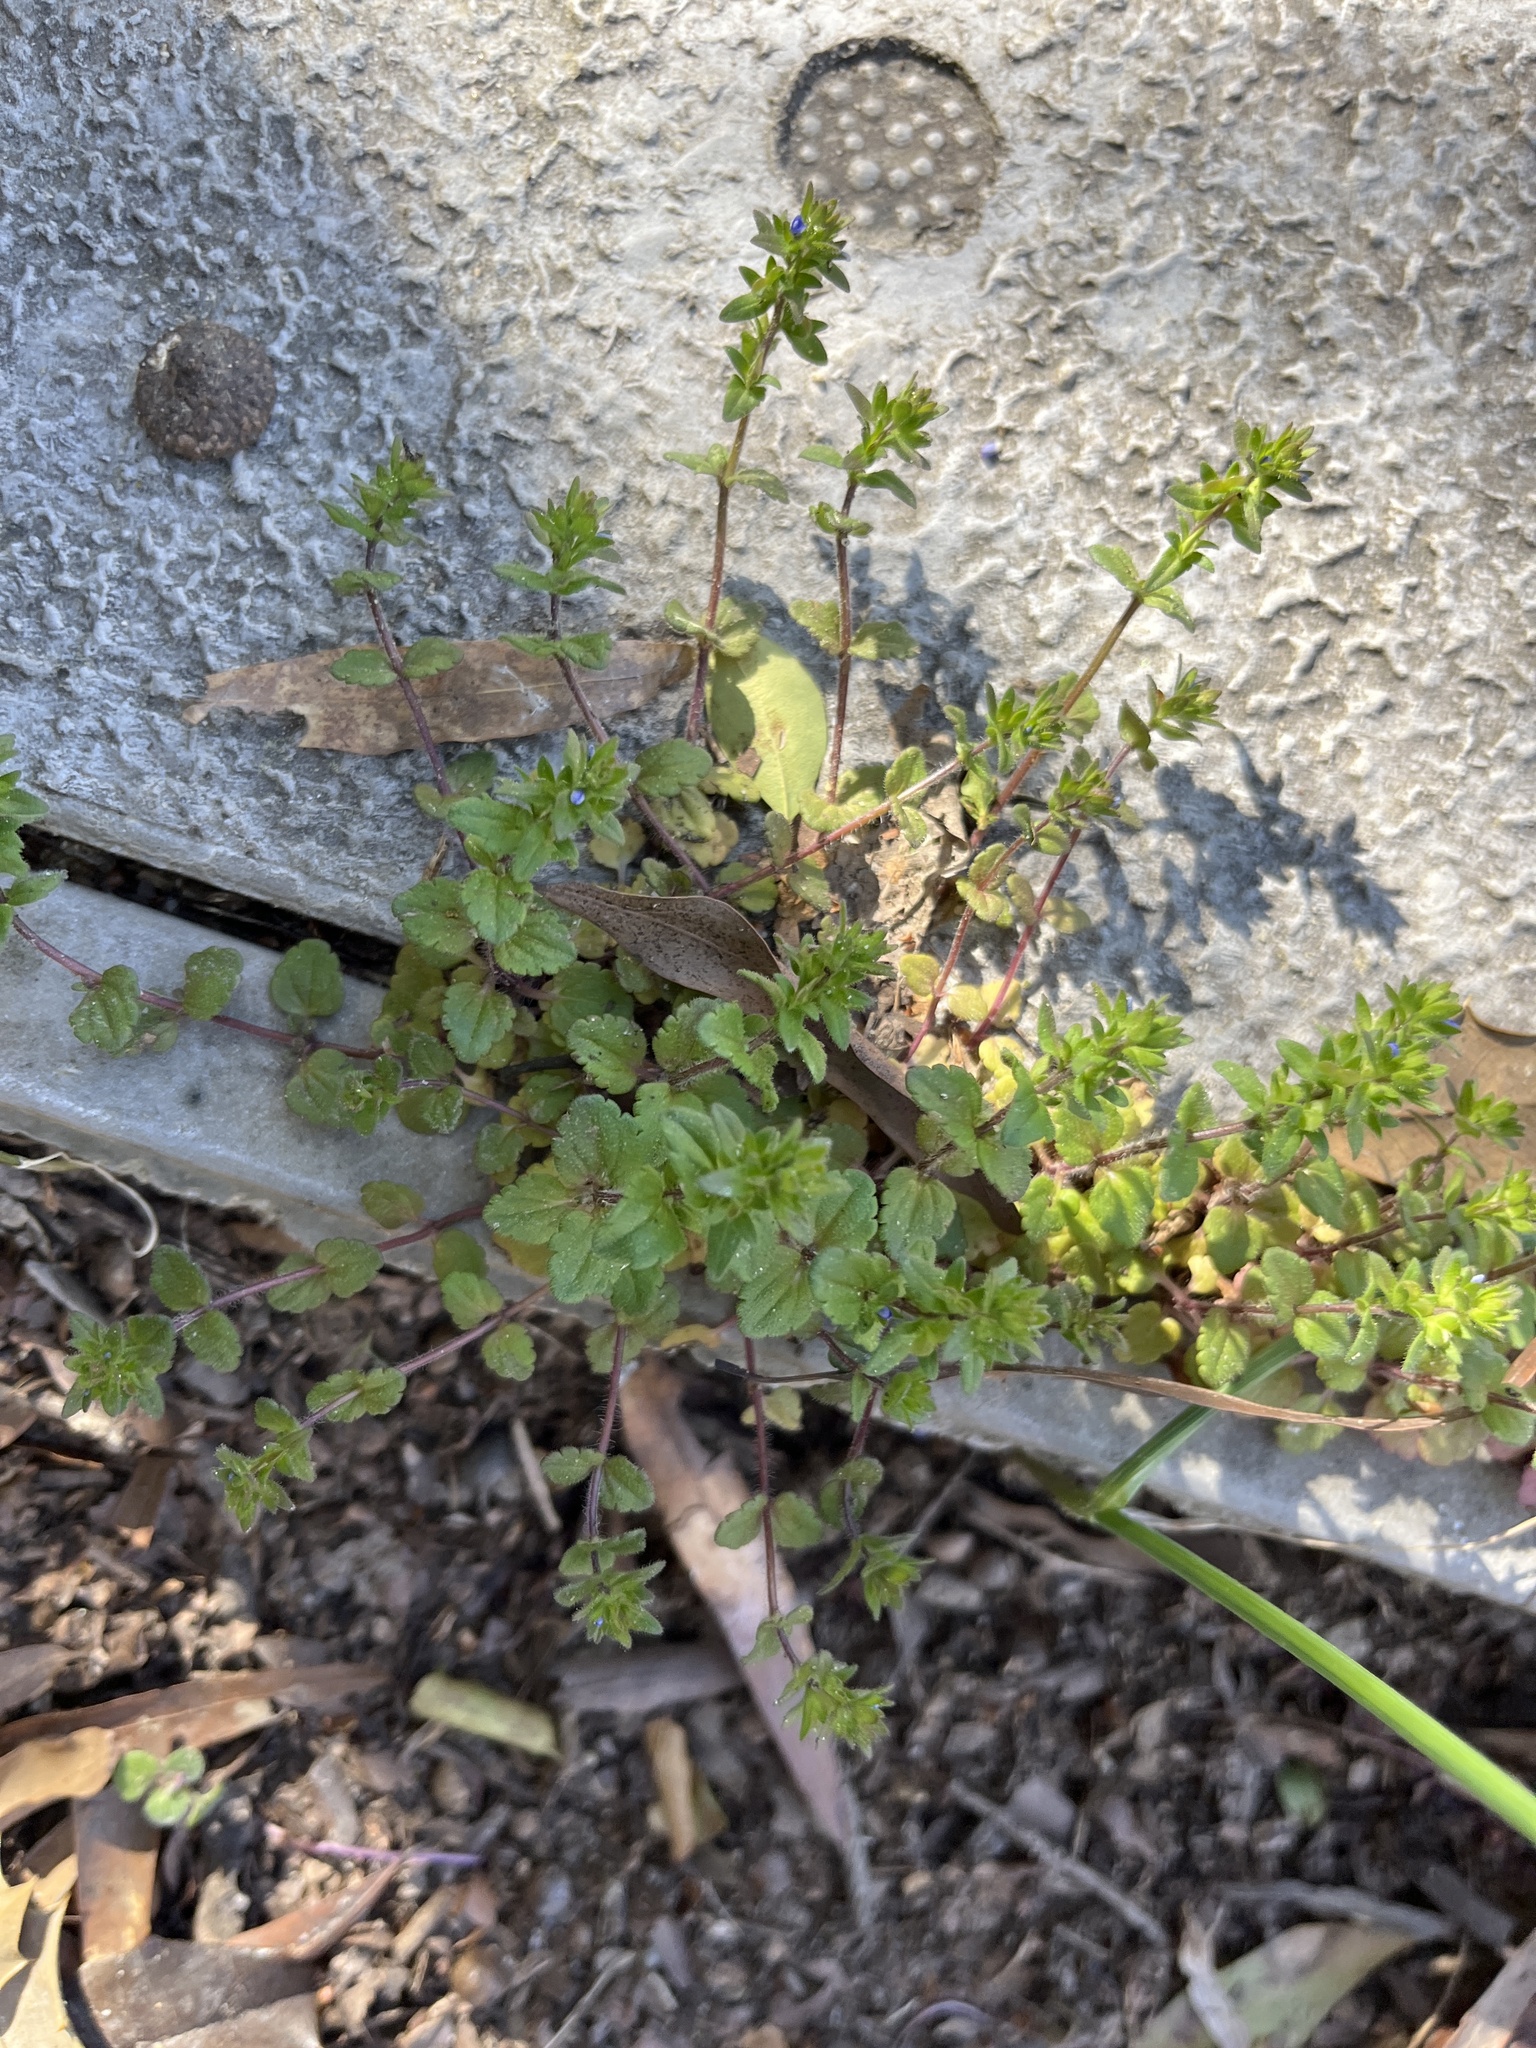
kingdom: Plantae
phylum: Tracheophyta
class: Magnoliopsida
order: Lamiales
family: Plantaginaceae
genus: Veronica
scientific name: Veronica arvensis
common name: Corn speedwell
